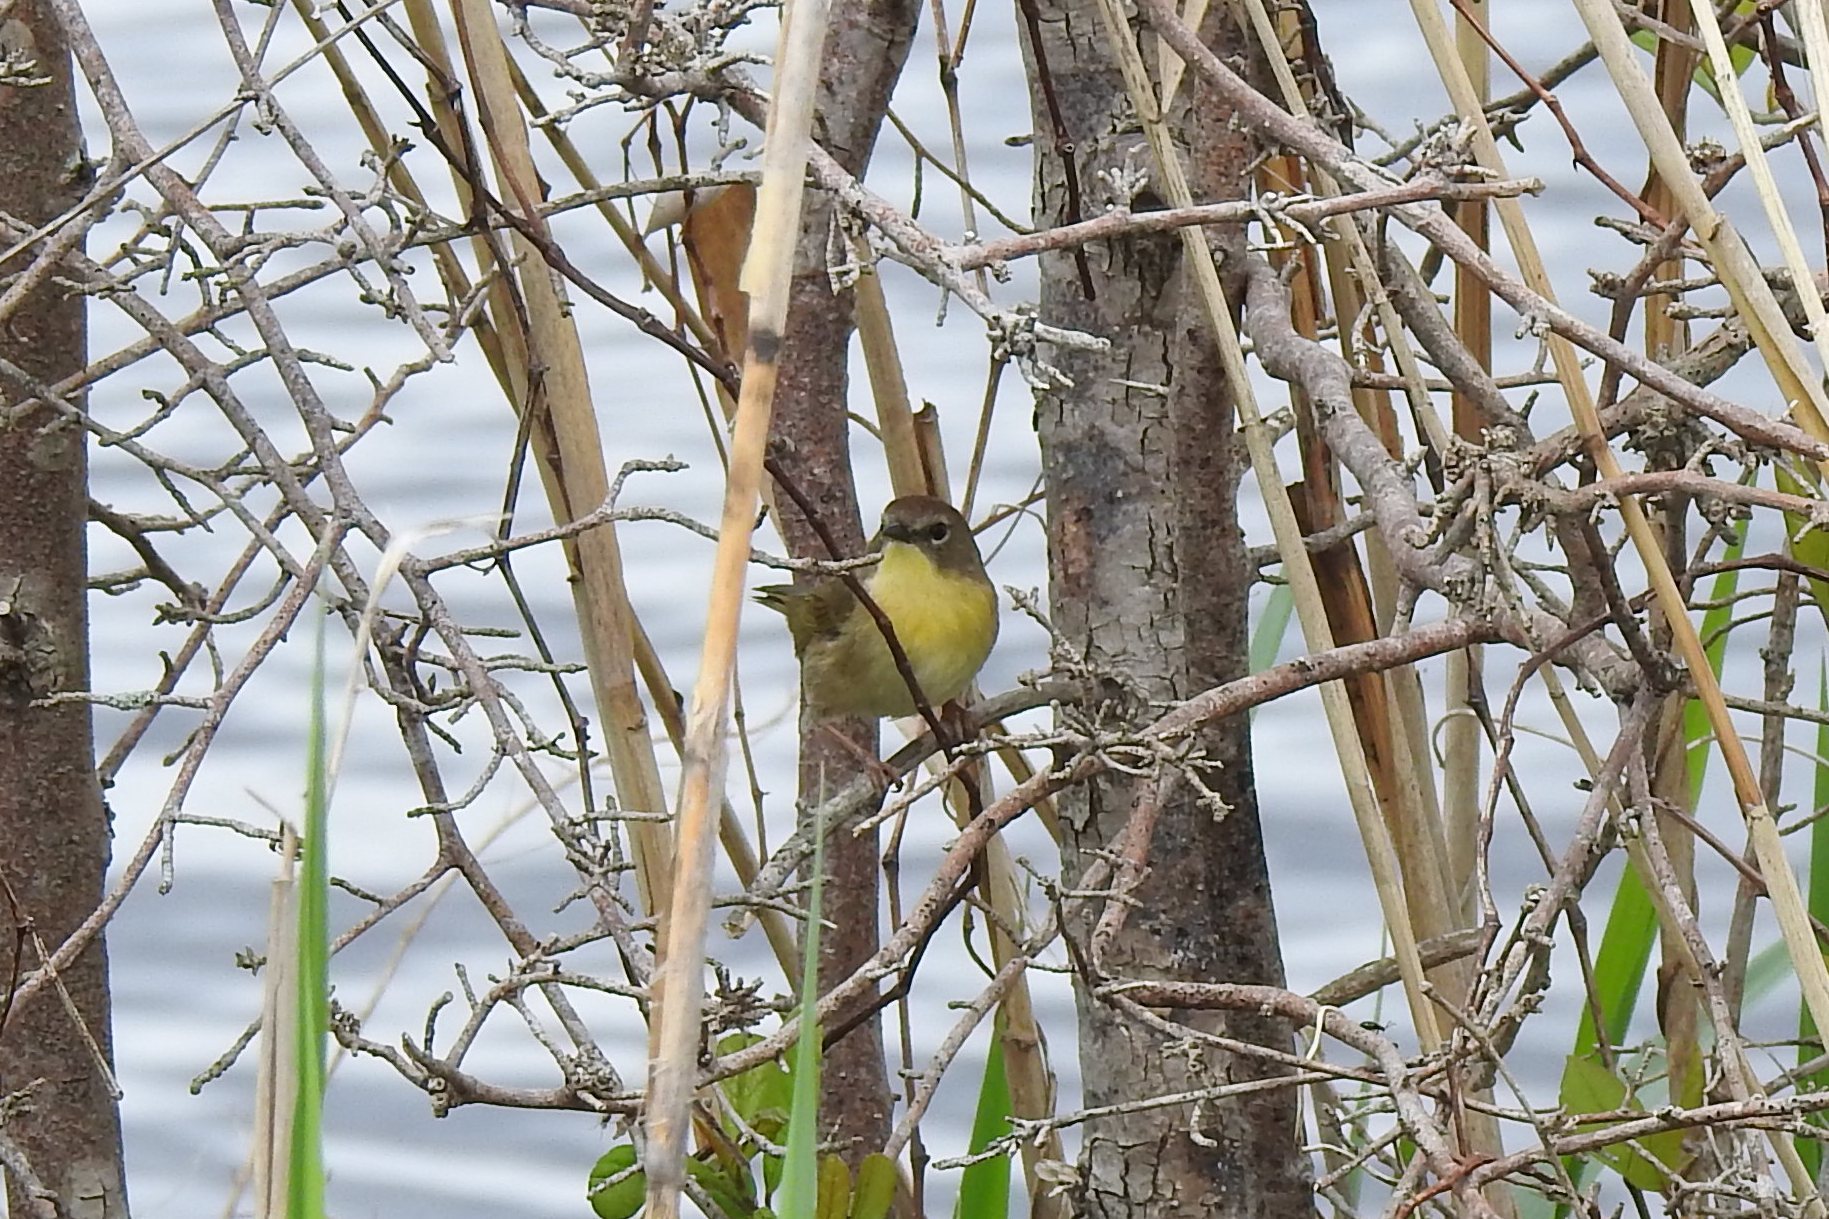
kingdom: Animalia
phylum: Chordata
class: Aves
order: Passeriformes
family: Parulidae
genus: Geothlypis
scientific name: Geothlypis trichas
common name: Common yellowthroat
